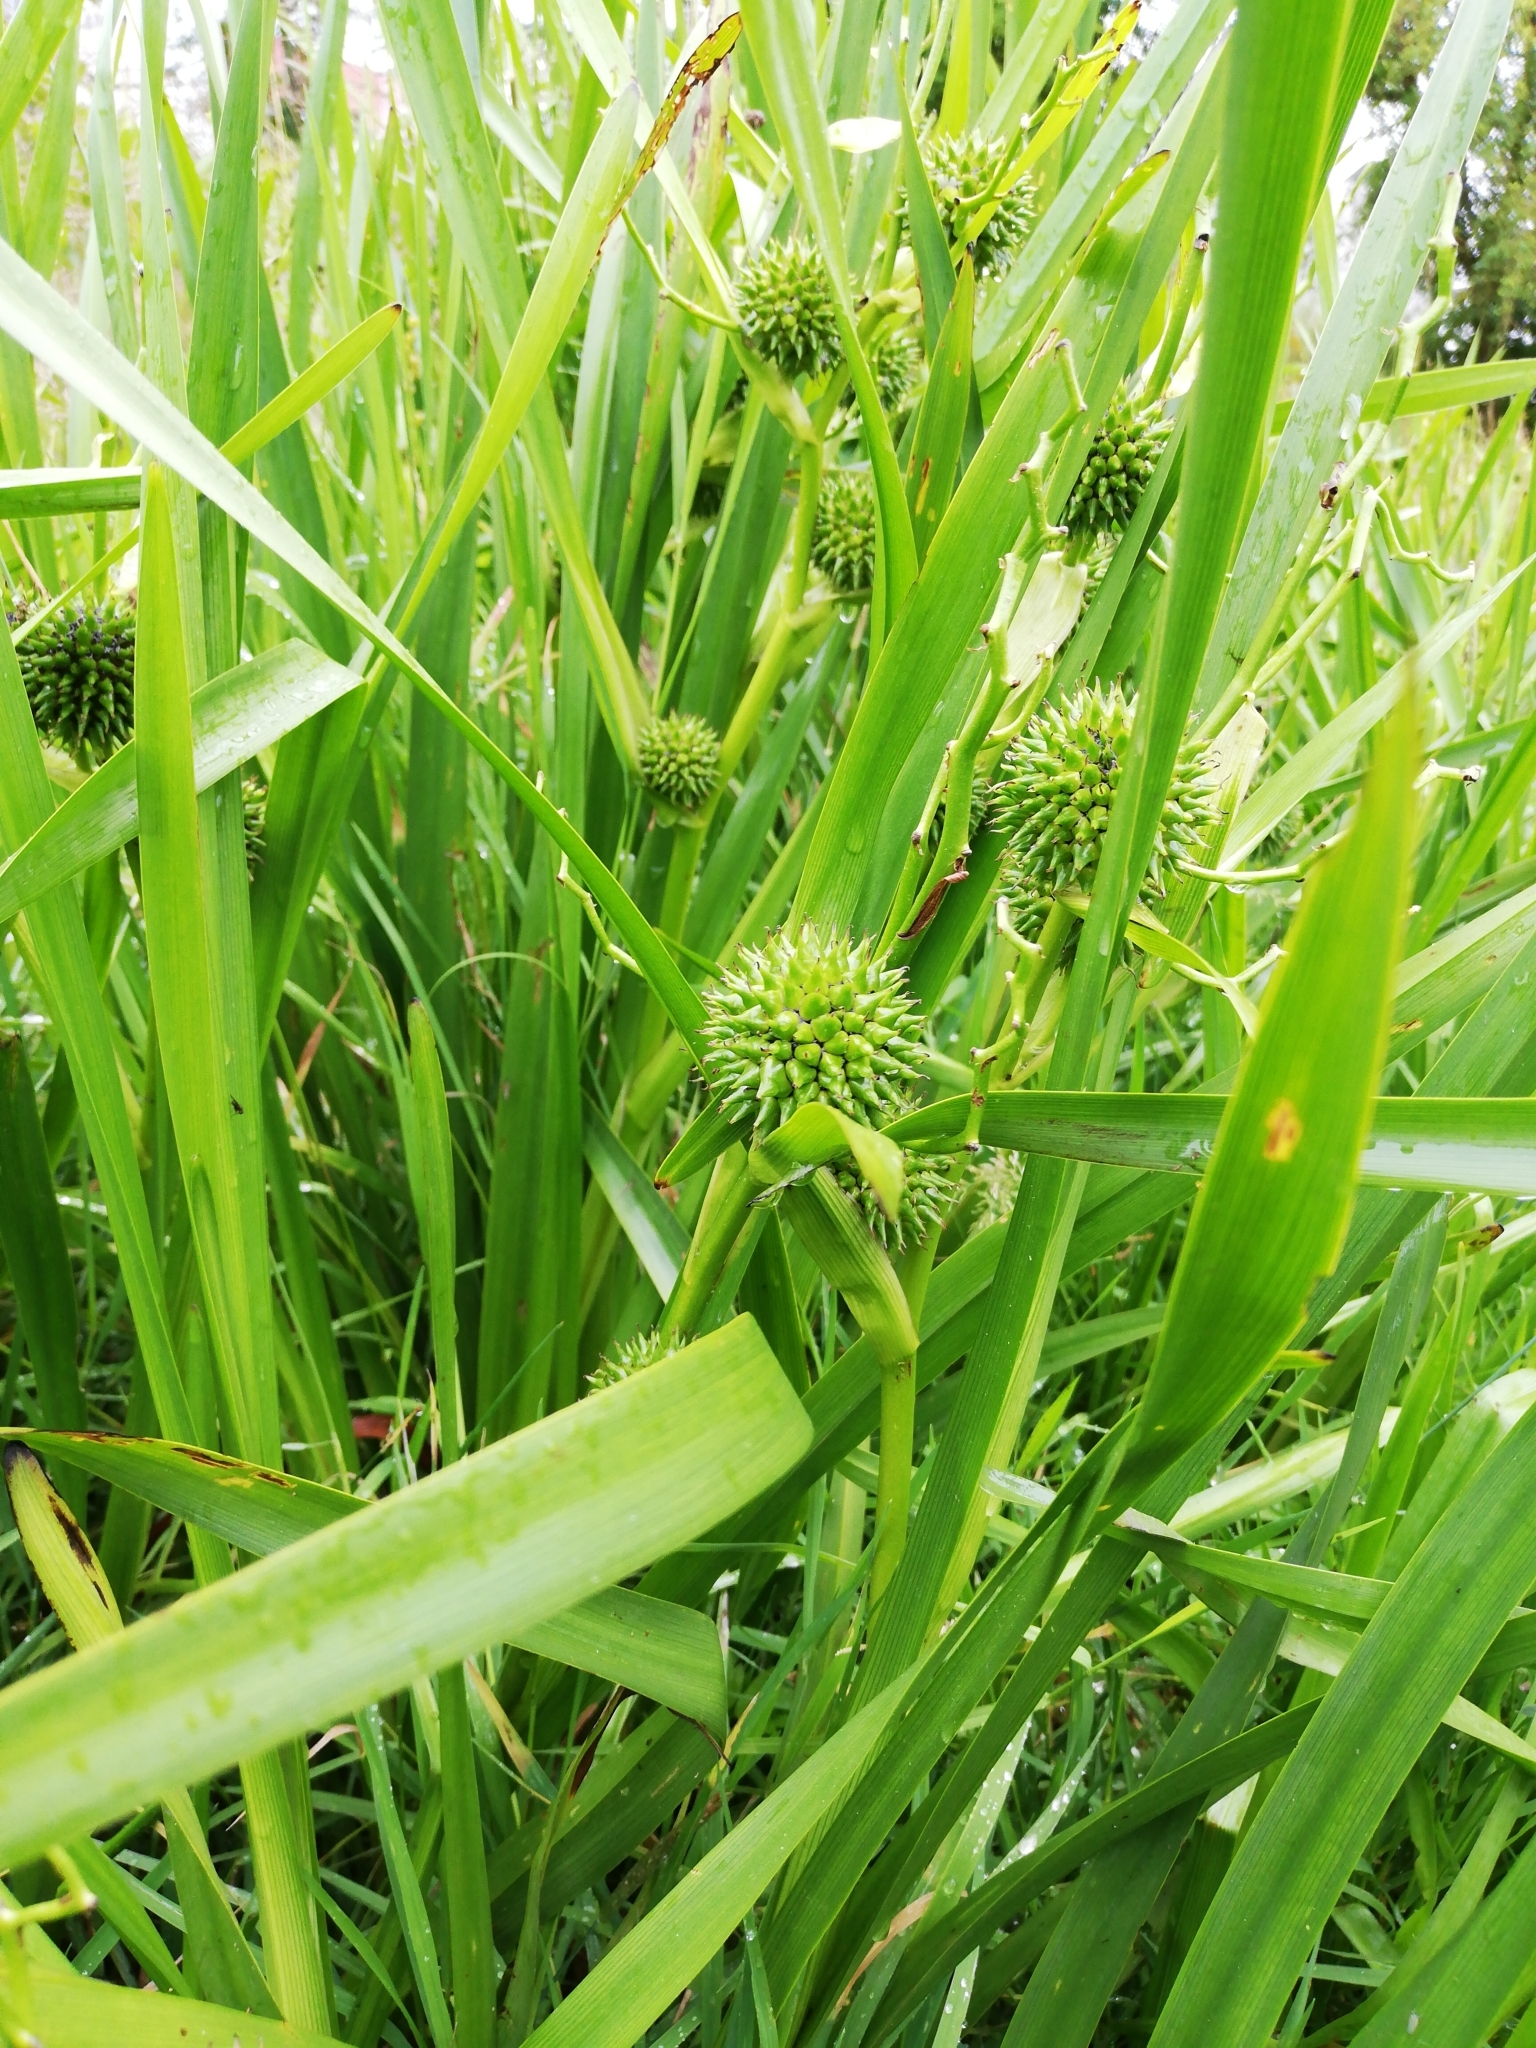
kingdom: Plantae
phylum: Tracheophyta
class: Liliopsida
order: Poales
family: Typhaceae
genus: Sparganium
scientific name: Sparganium erectum
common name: Branched bur-reed
